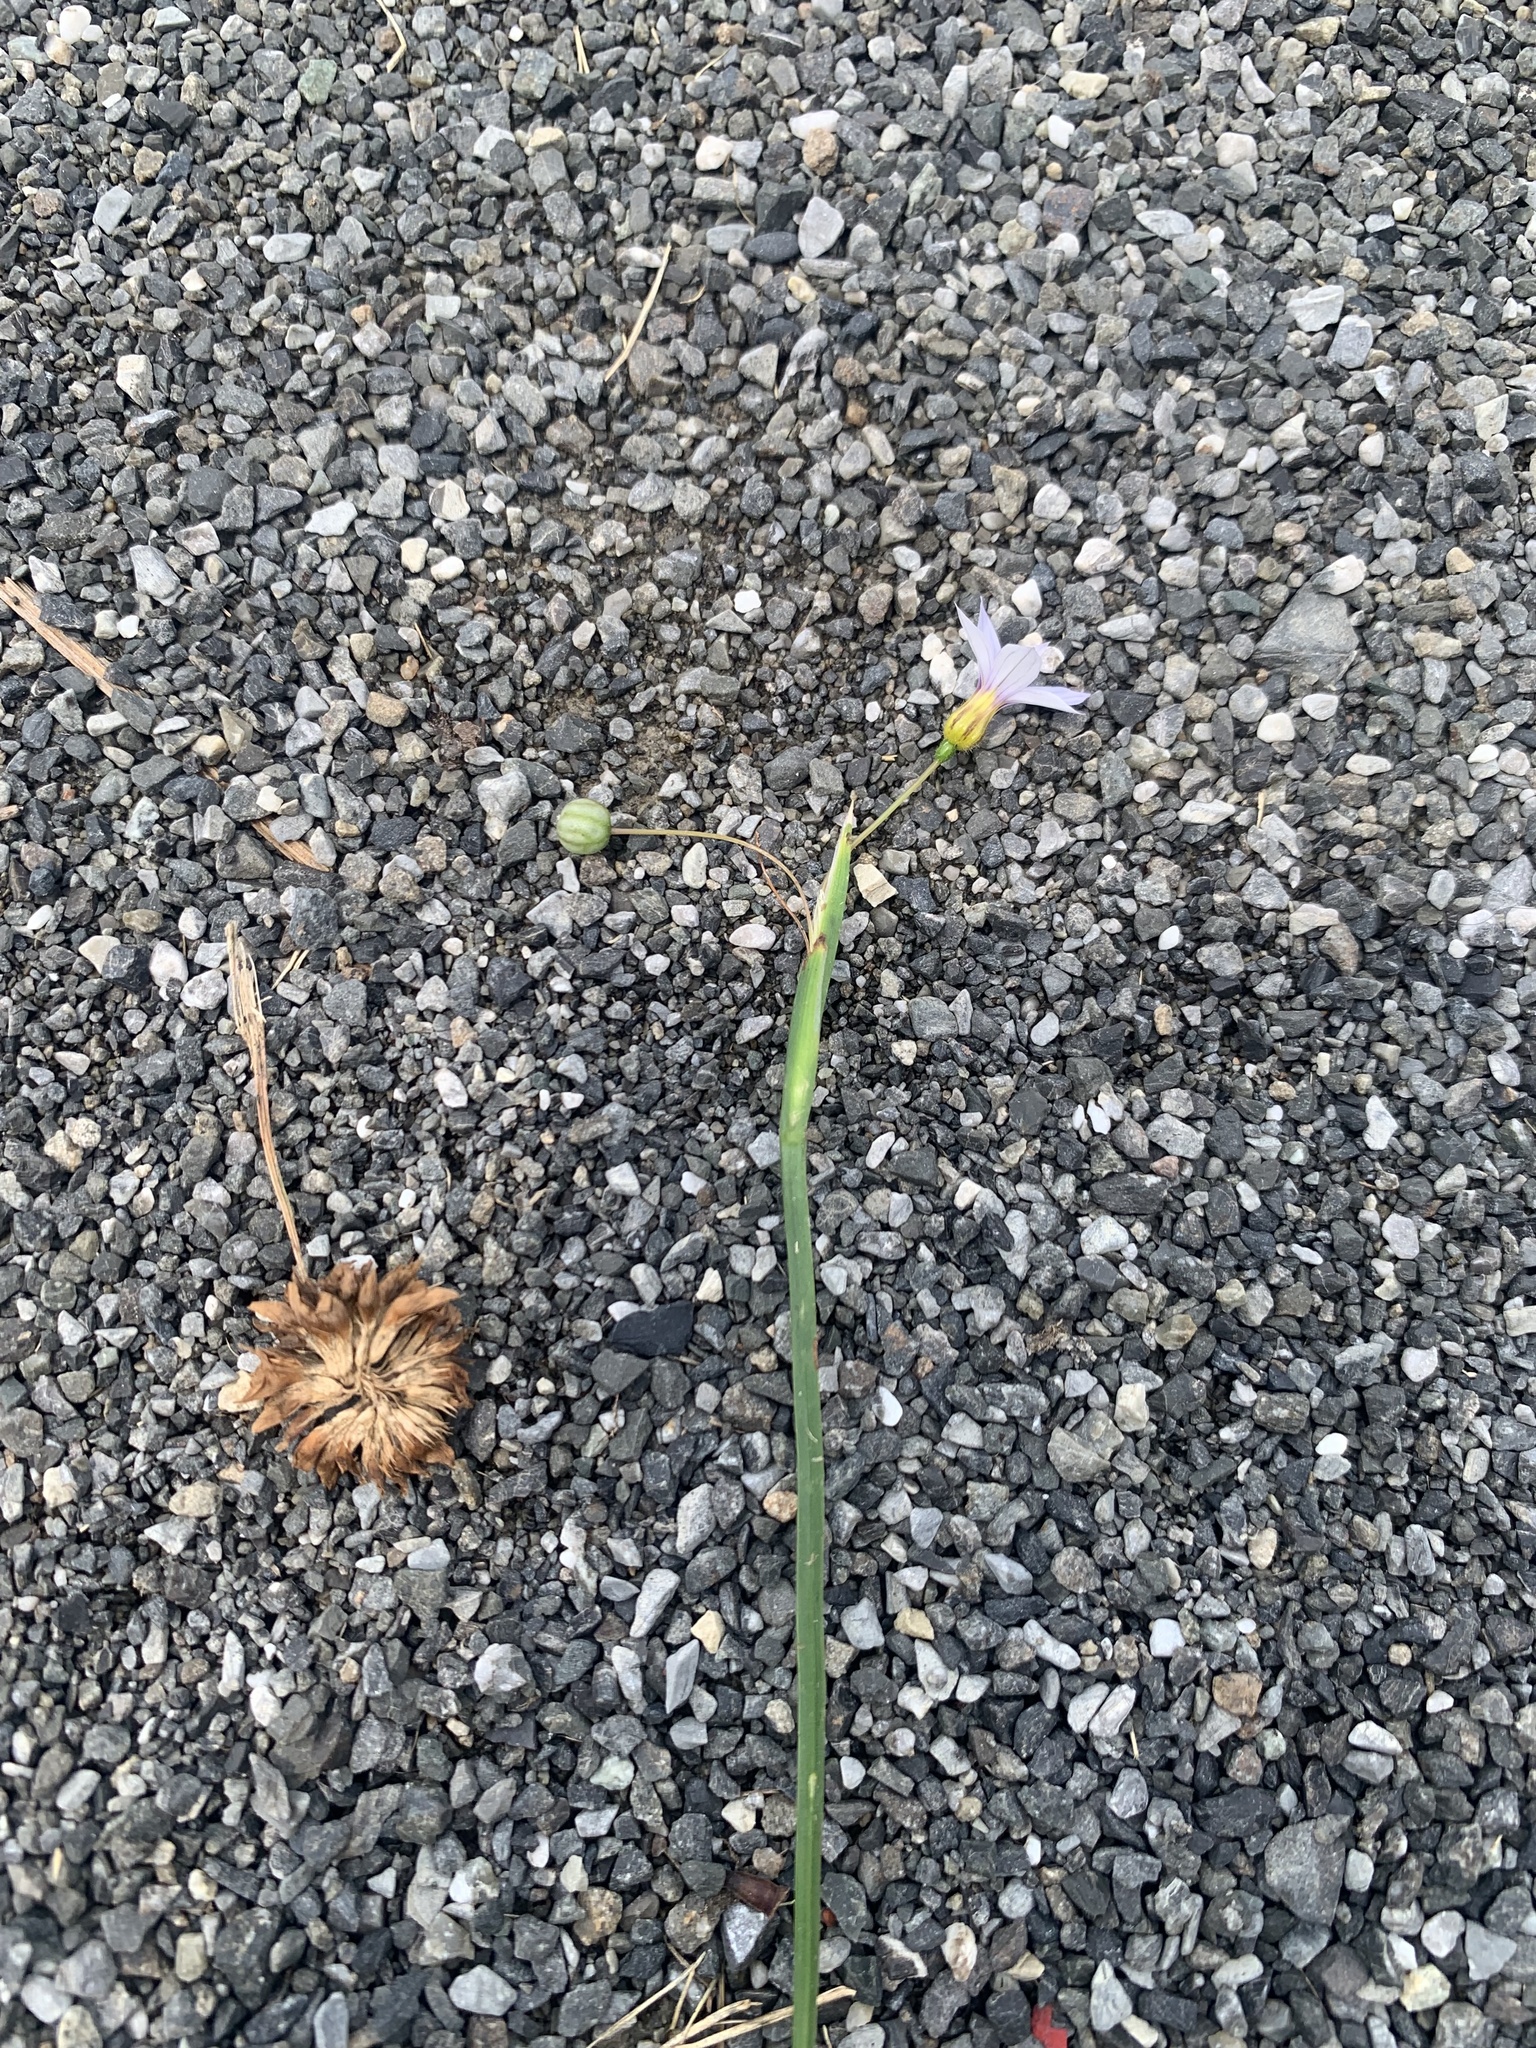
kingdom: Plantae
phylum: Tracheophyta
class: Liliopsida
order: Asparagales
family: Iridaceae
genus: Sisyrinchium
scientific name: Sisyrinchium micranthum
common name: Bermuda pigroot
